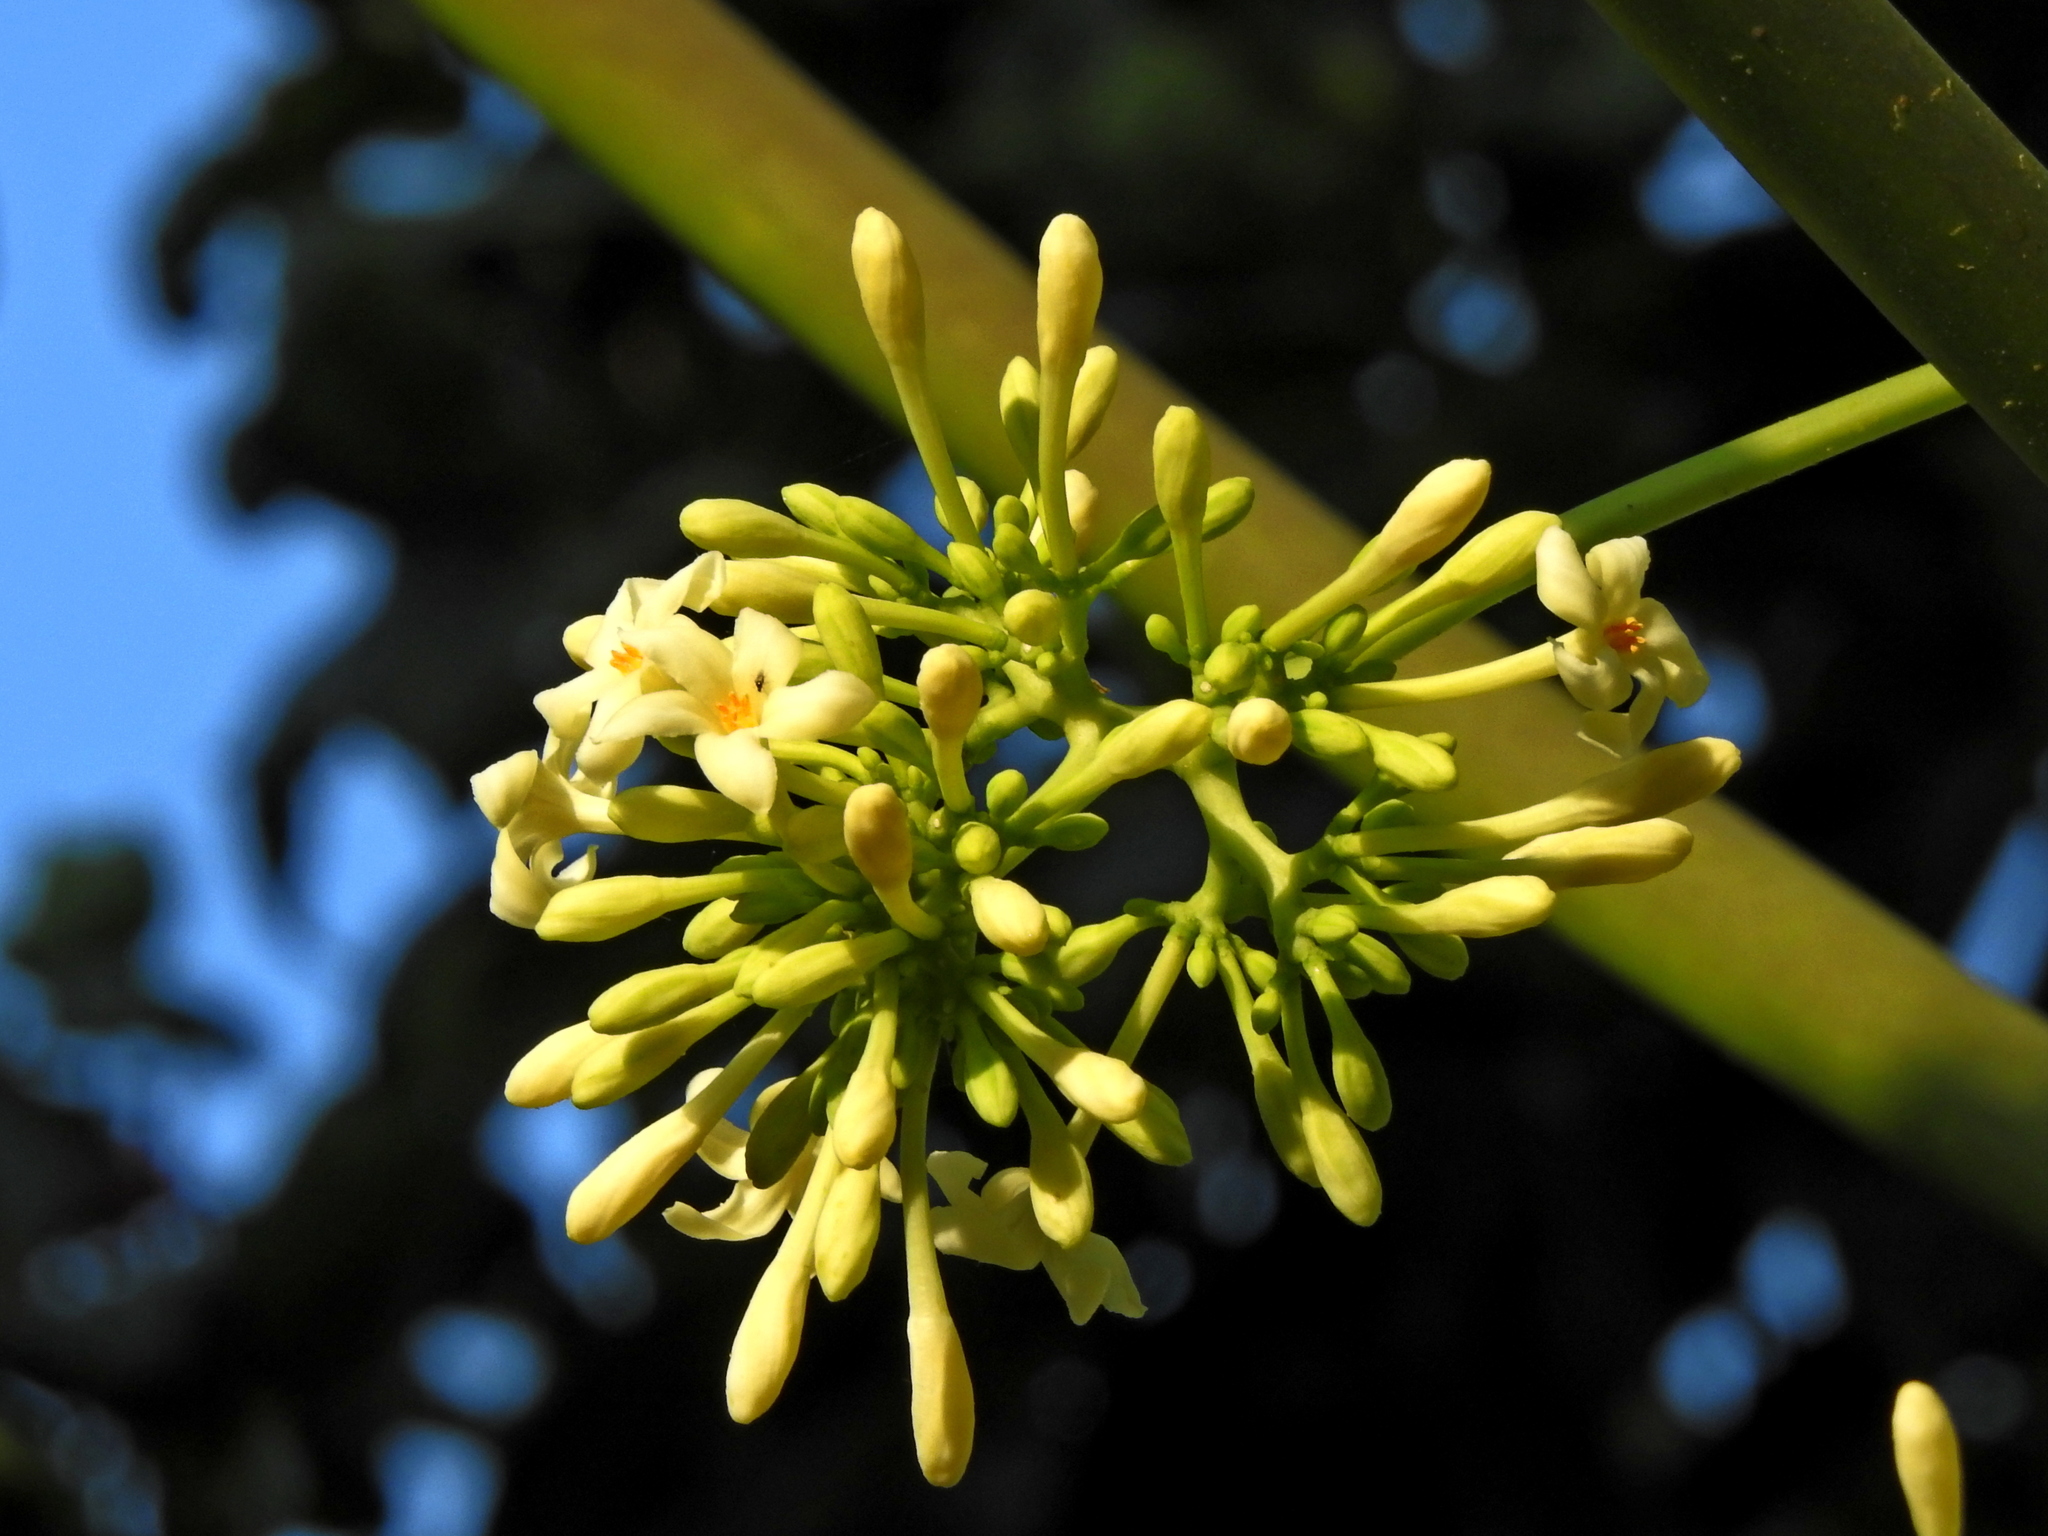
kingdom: Plantae
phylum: Tracheophyta
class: Magnoliopsida
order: Brassicales
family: Caricaceae
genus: Carica
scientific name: Carica papaya
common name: Papaya
